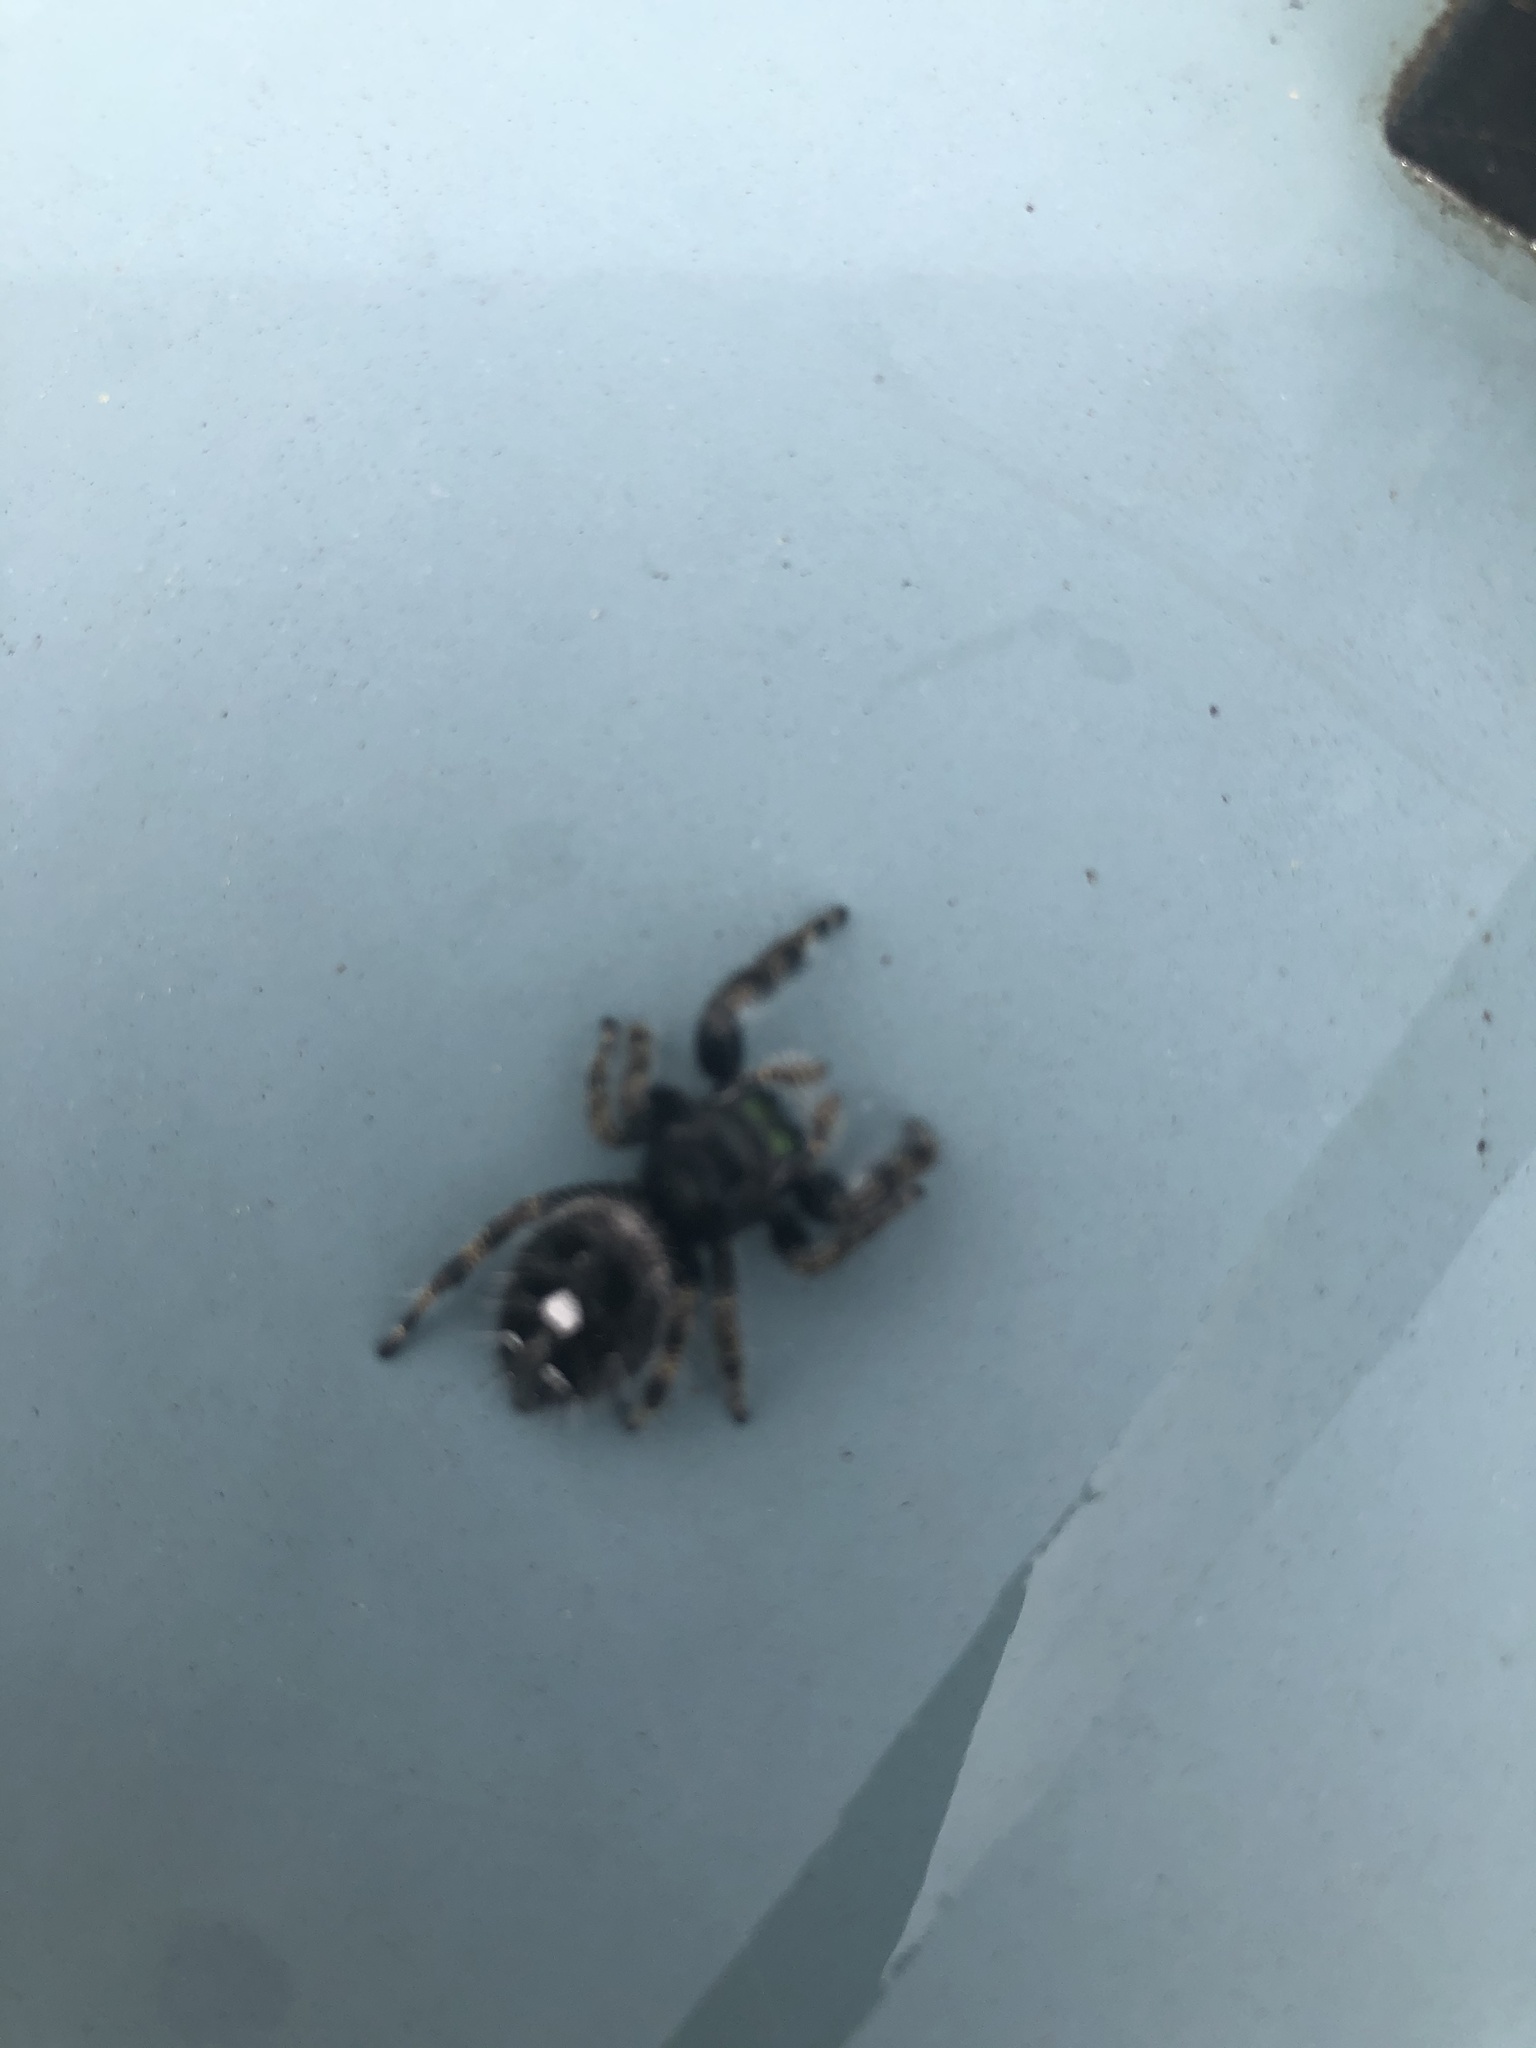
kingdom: Animalia
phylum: Arthropoda
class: Arachnida
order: Araneae
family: Salticidae
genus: Phidippus
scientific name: Phidippus audax
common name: Bold jumper
